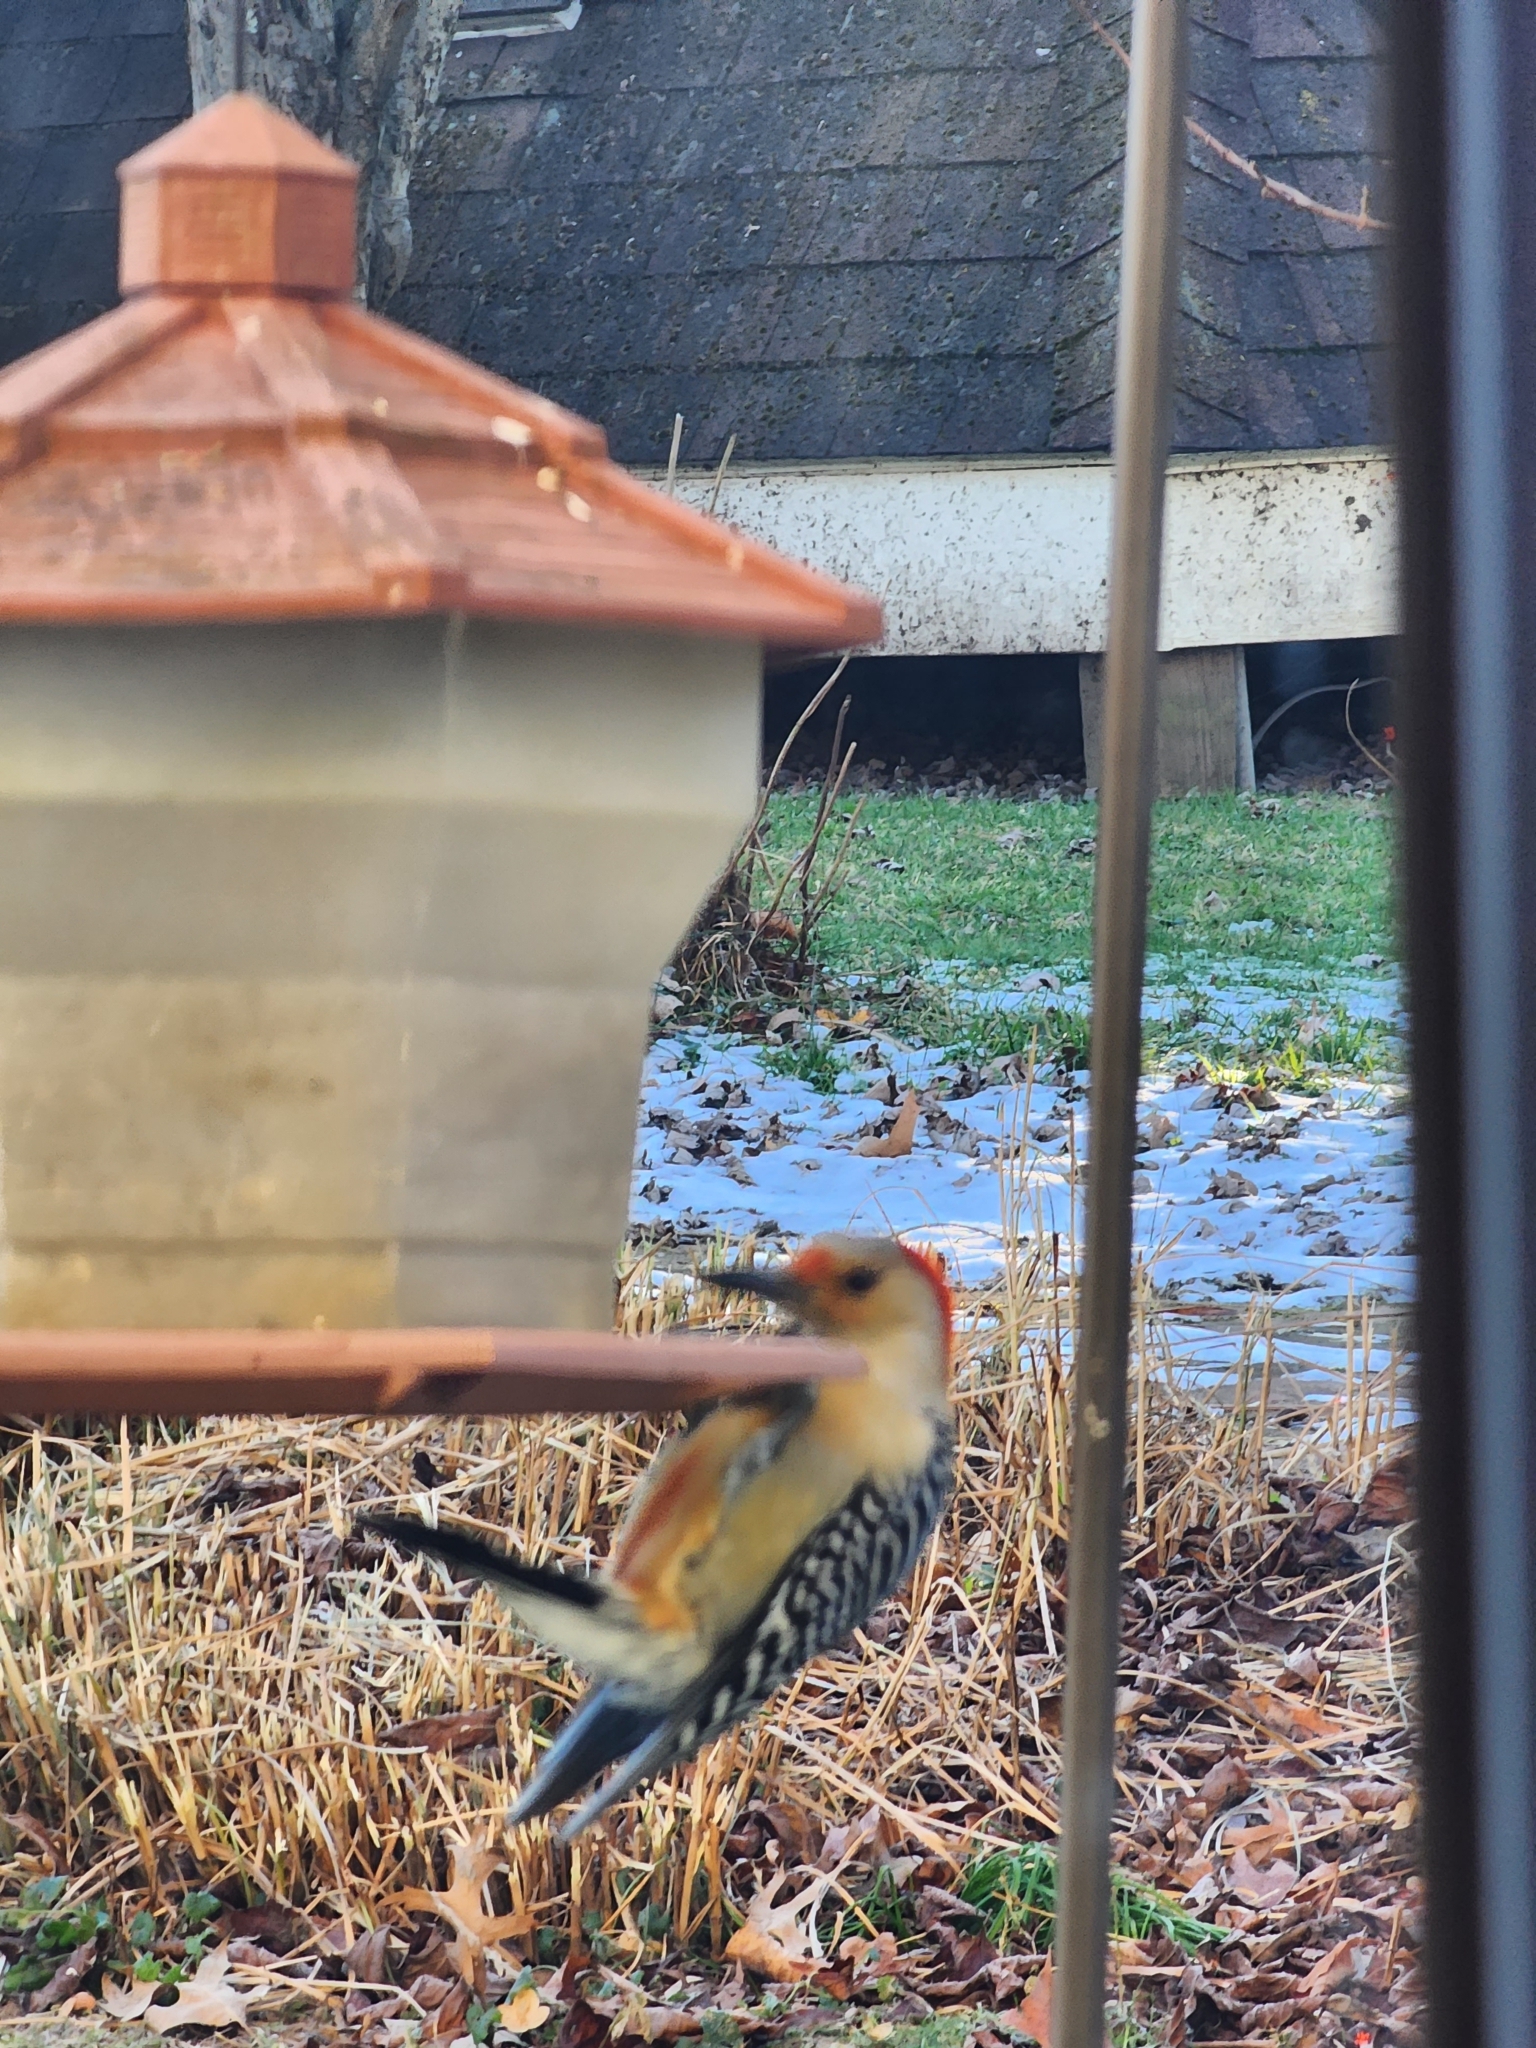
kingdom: Animalia
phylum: Chordata
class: Aves
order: Piciformes
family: Picidae
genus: Melanerpes
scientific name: Melanerpes carolinus
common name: Red-bellied woodpecker
